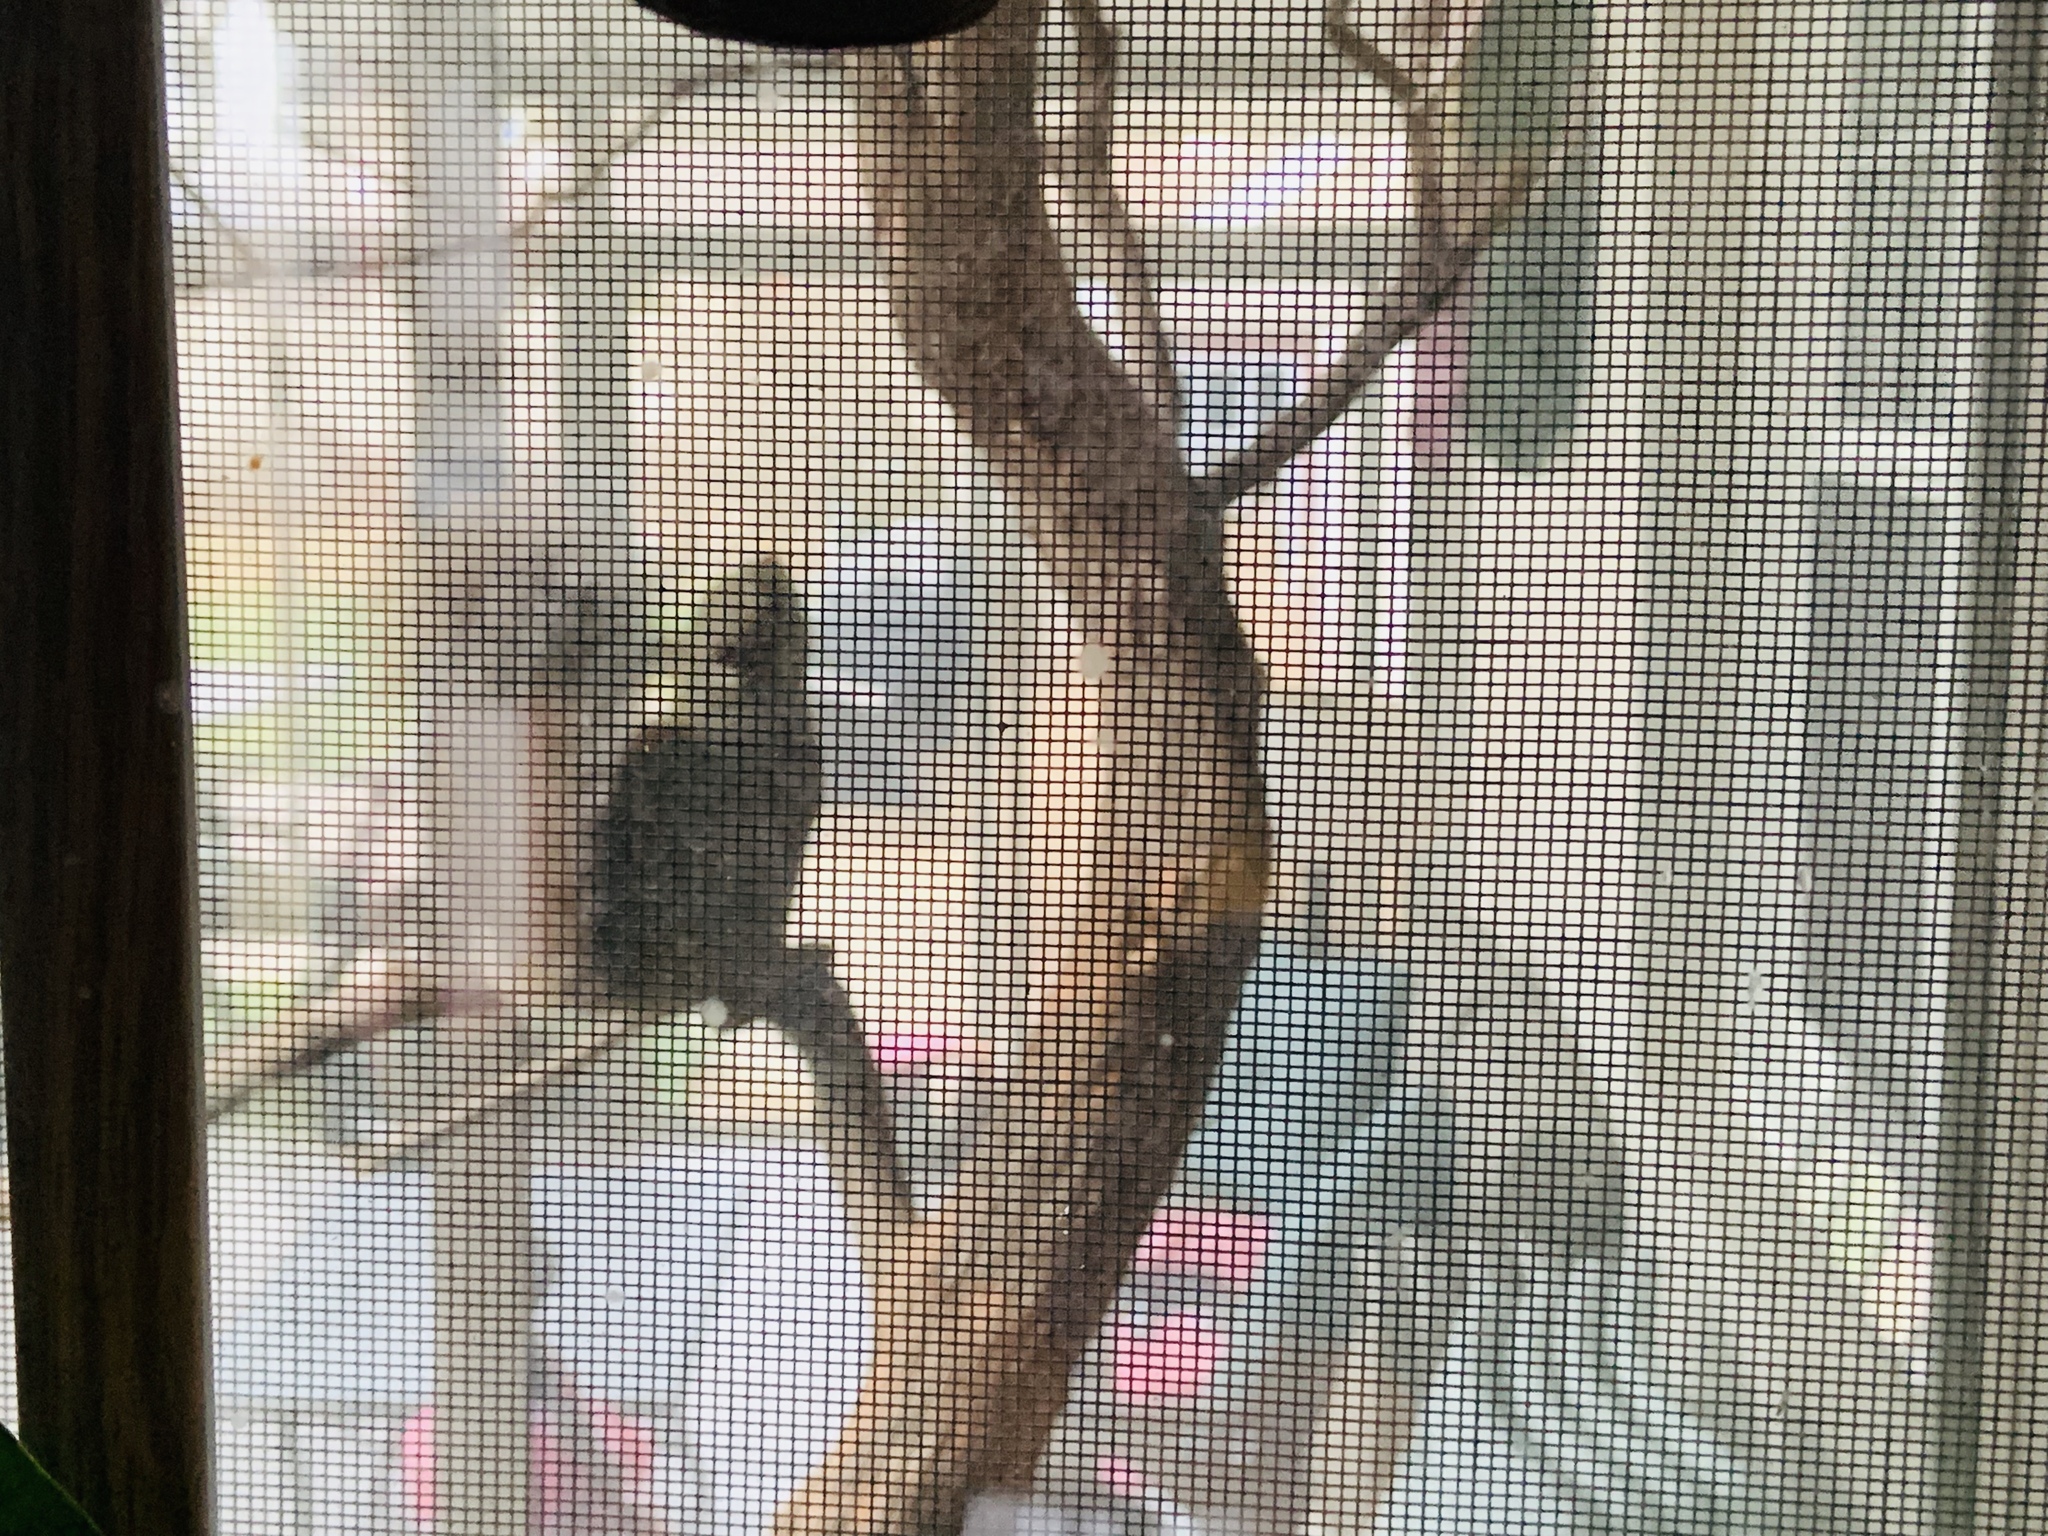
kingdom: Animalia
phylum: Chordata
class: Mammalia
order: Rodentia
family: Sciuridae
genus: Sciurus
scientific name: Sciurus carolinensis
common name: Eastern gray squirrel
